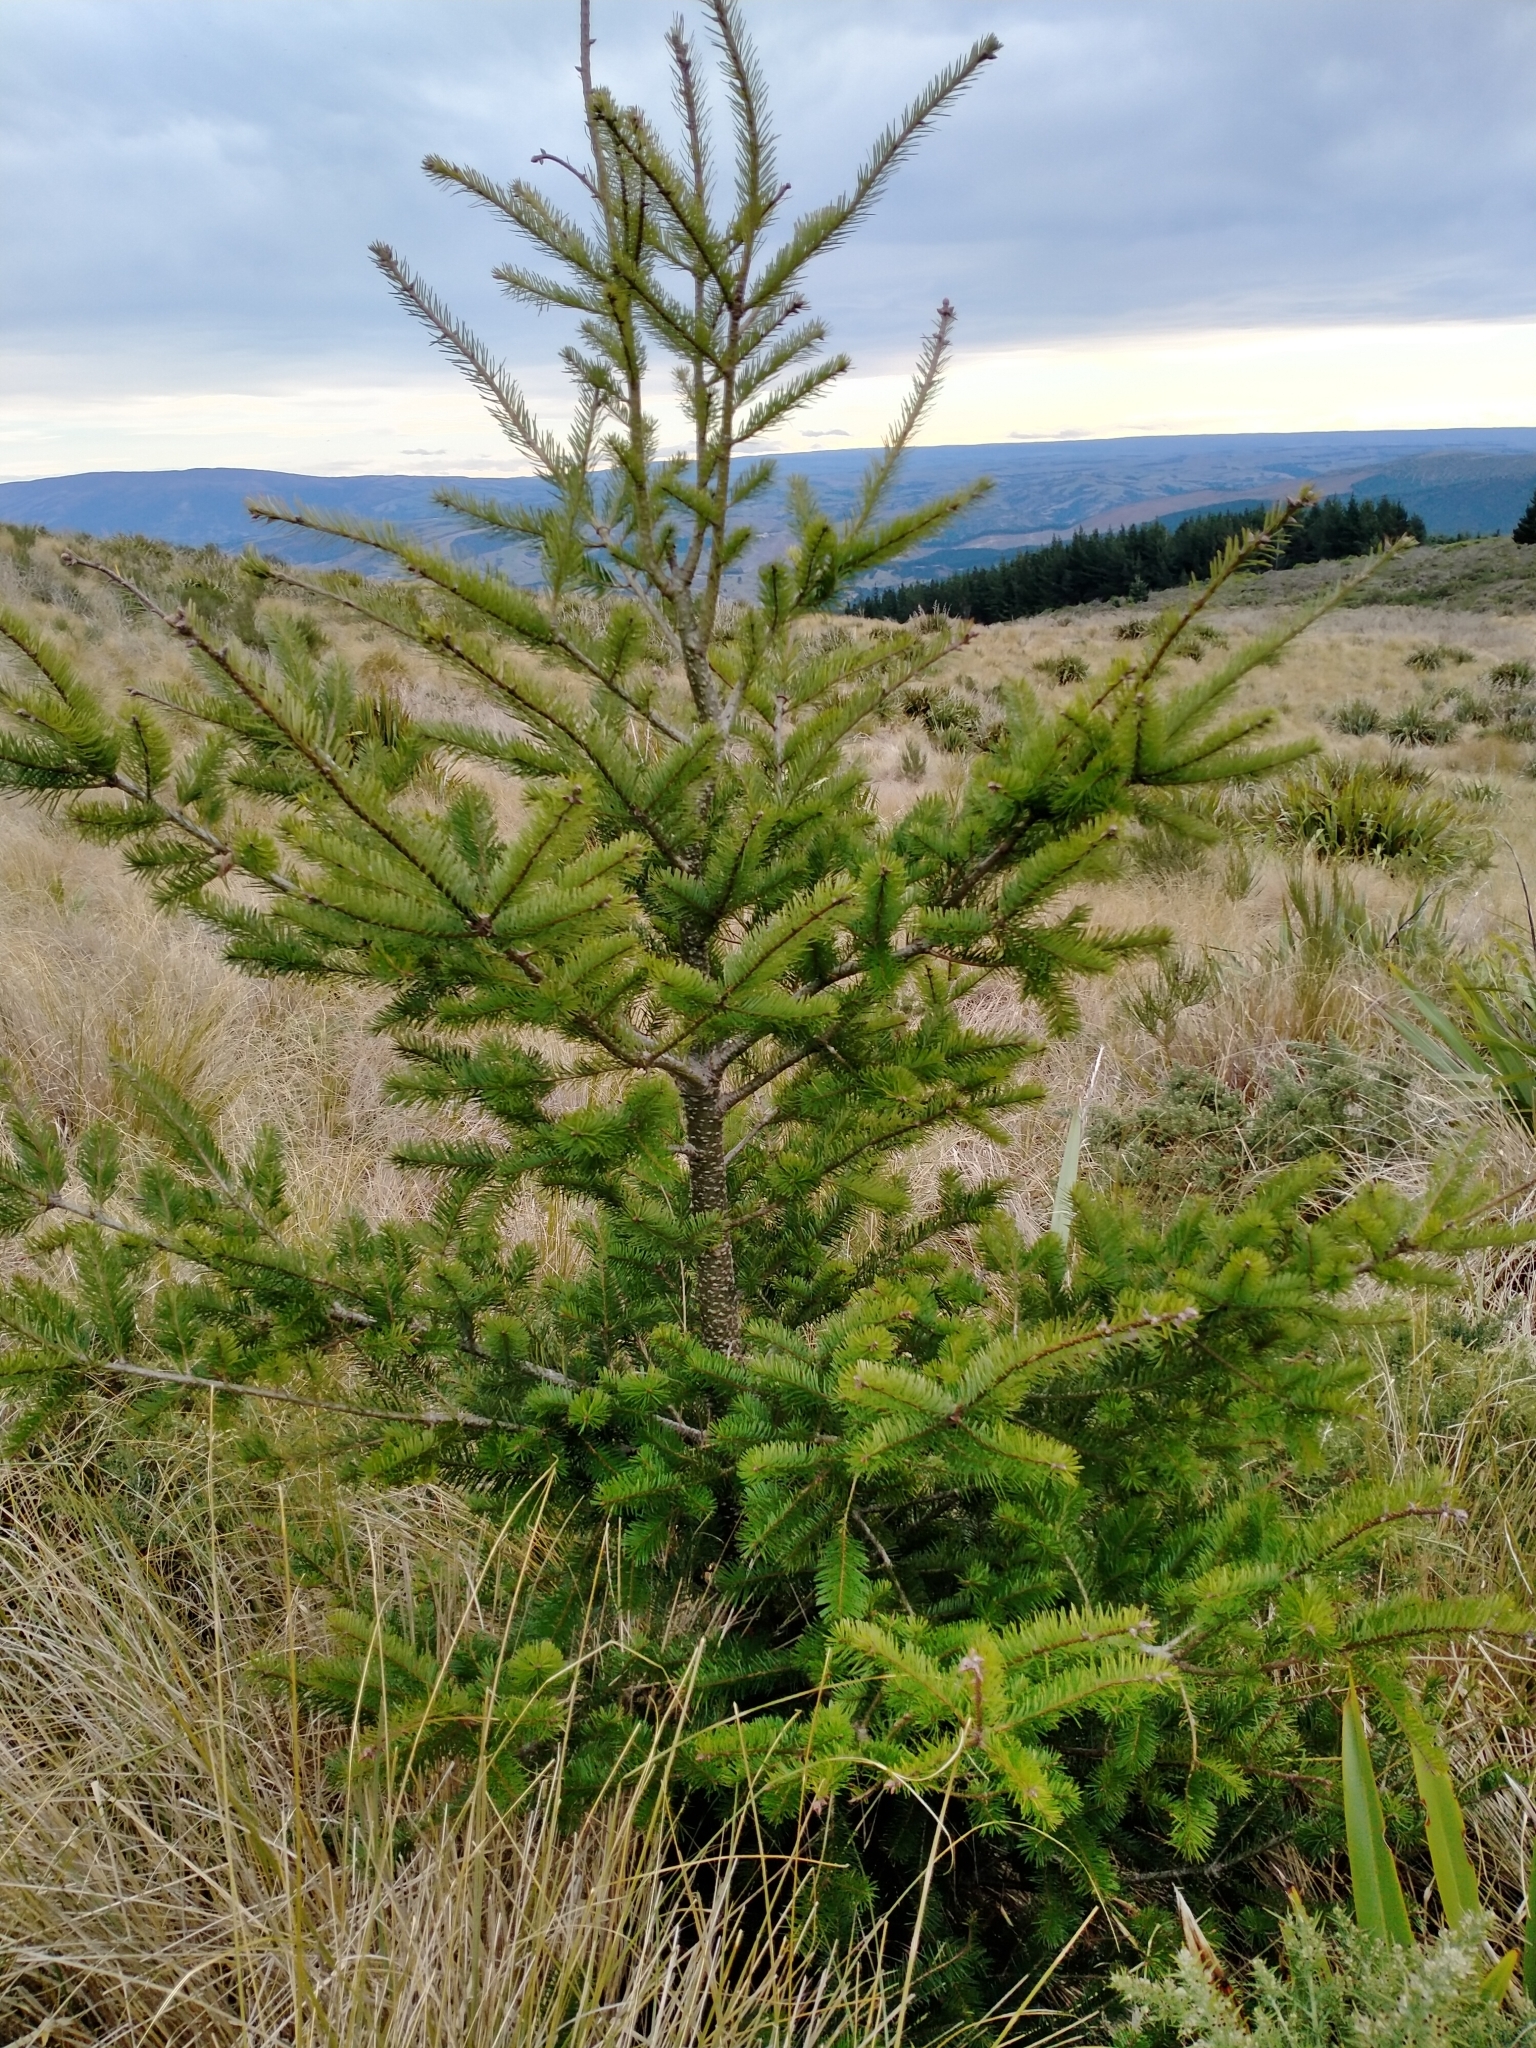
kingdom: Plantae
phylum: Tracheophyta
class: Pinopsida
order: Pinales
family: Pinaceae
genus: Pseudotsuga
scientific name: Pseudotsuga menziesii
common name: Douglas fir
